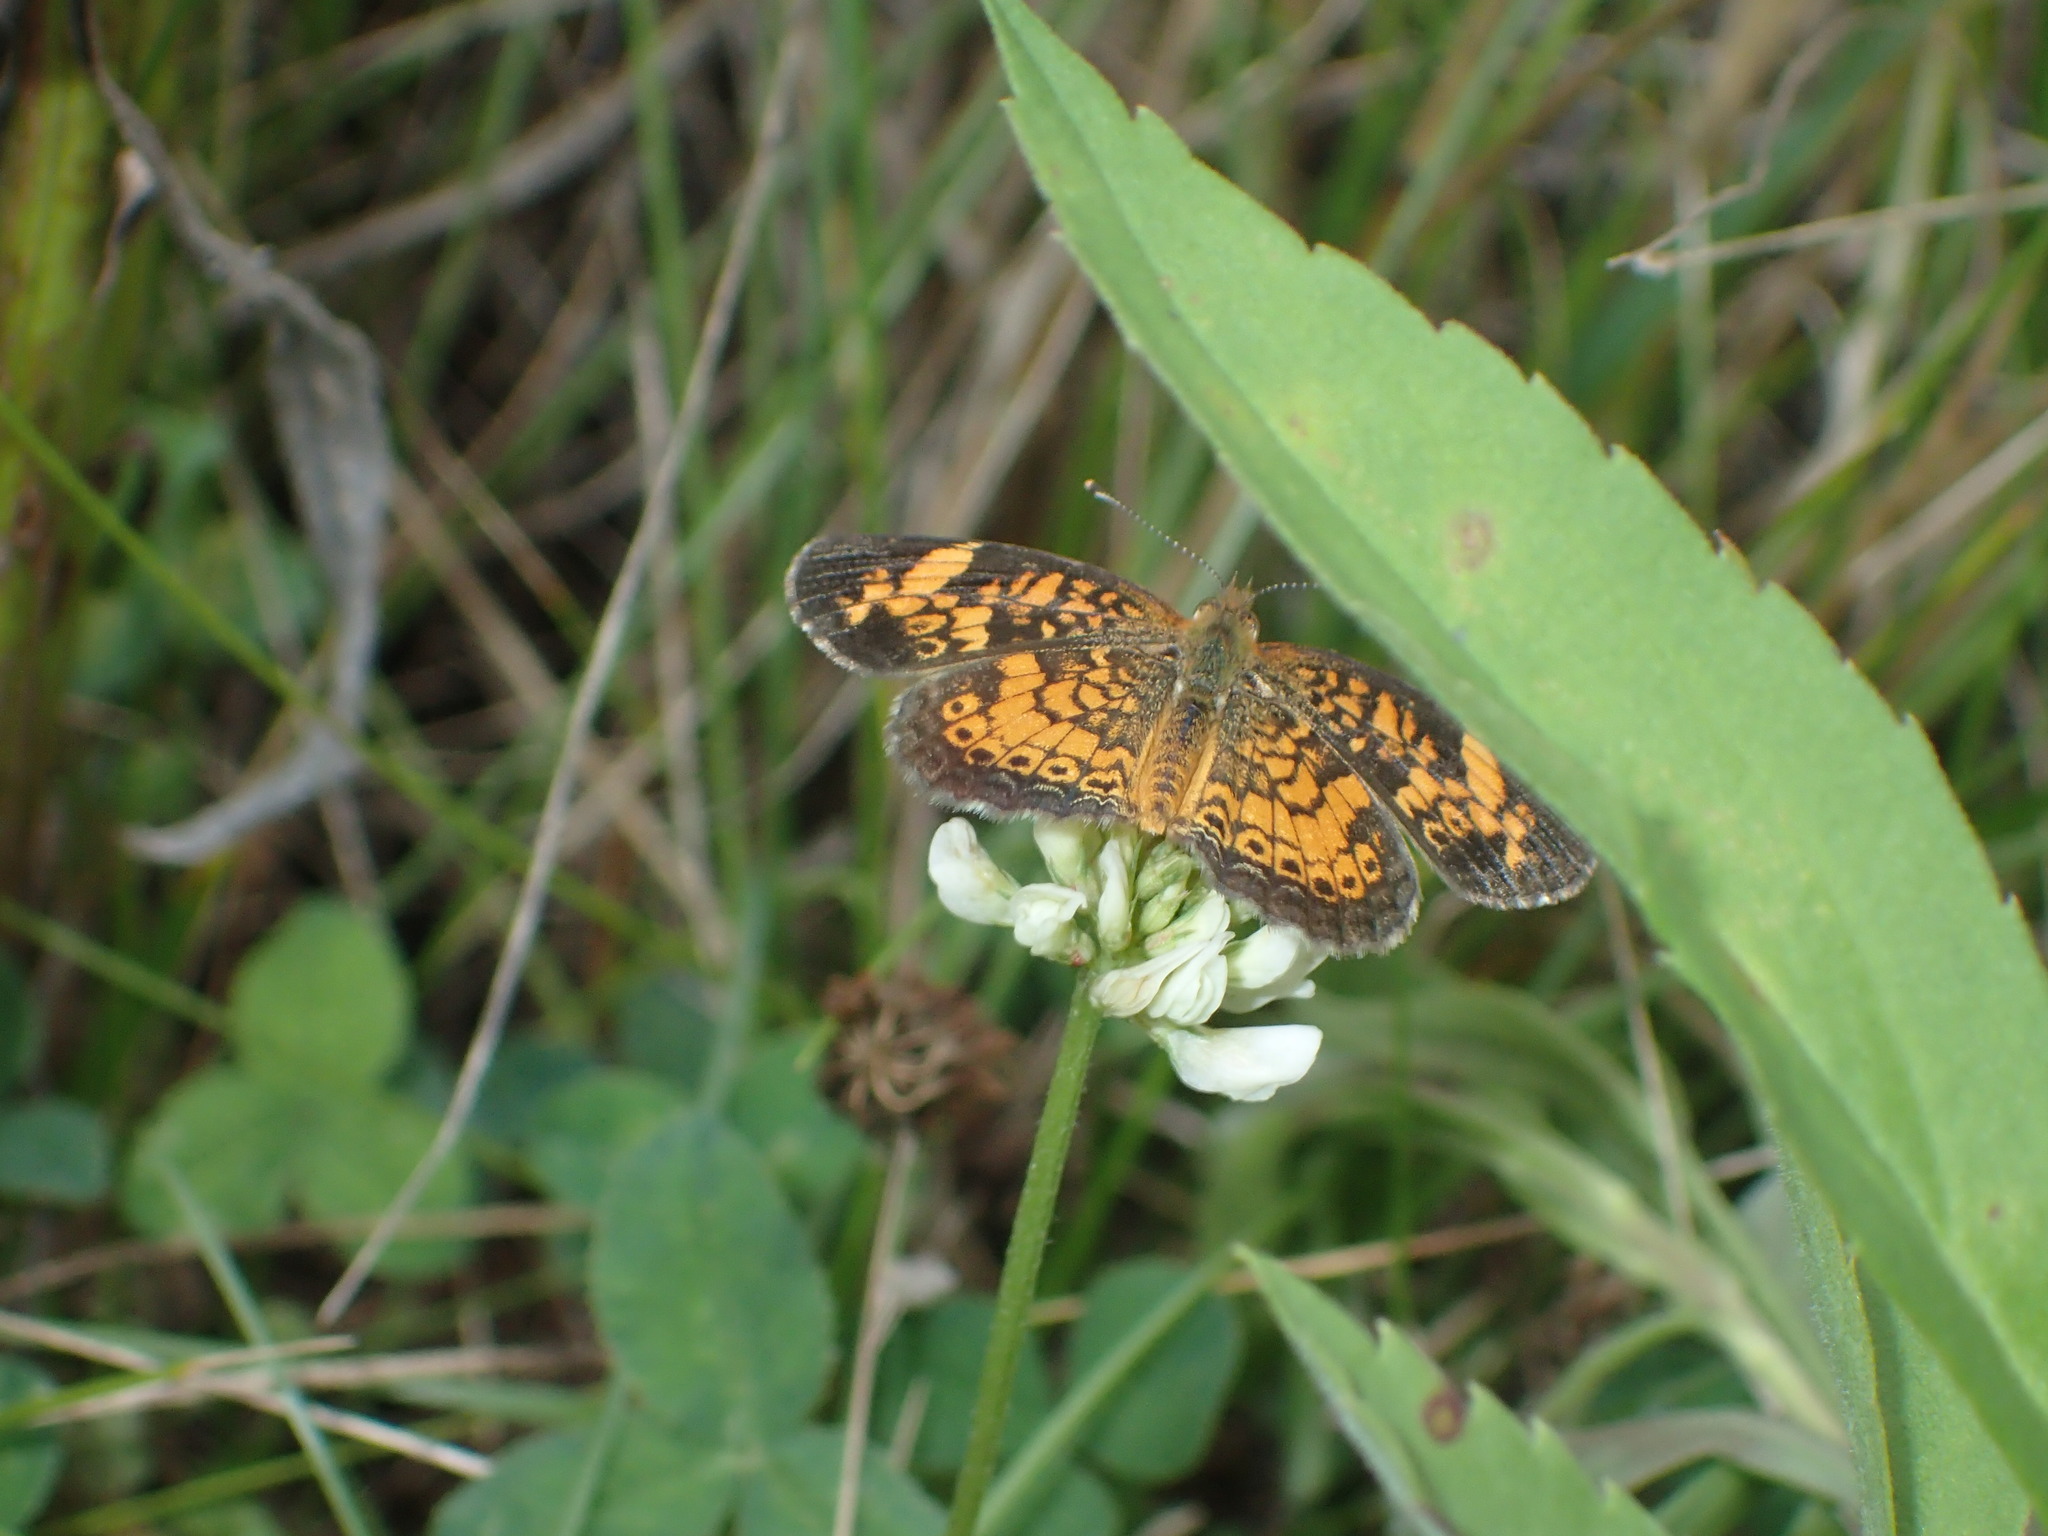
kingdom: Animalia
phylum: Arthropoda
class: Insecta
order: Lepidoptera
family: Nymphalidae
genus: Phyciodes
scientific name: Phyciodes tharos
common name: Pearl crescent
